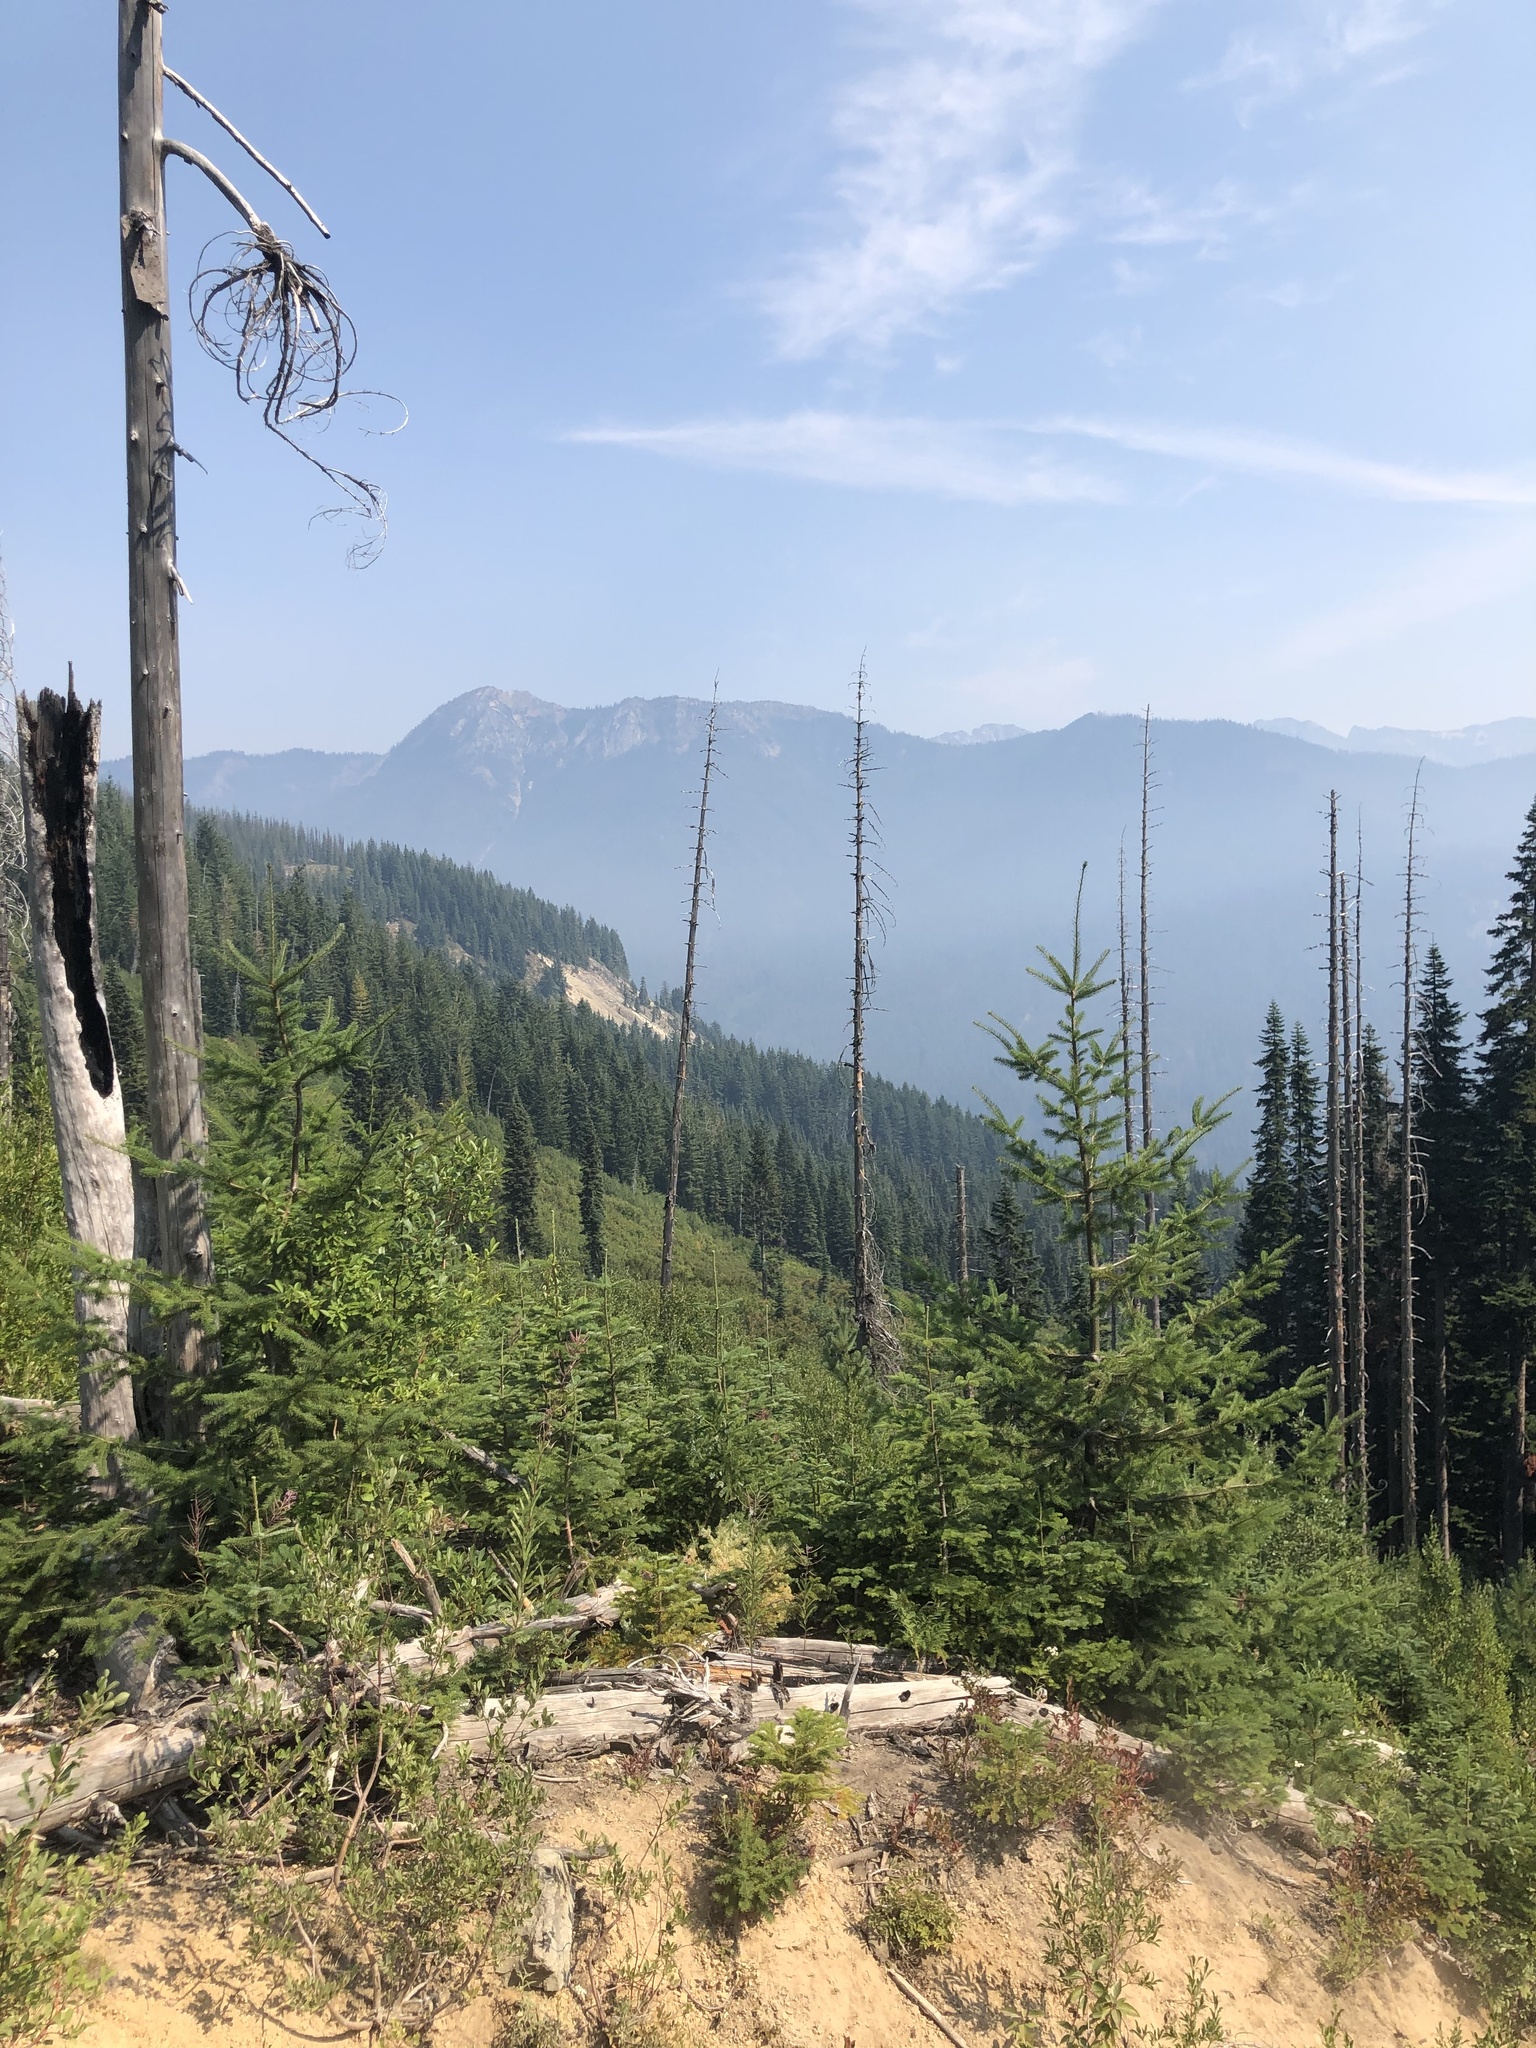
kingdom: Plantae
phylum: Tracheophyta
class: Pinopsida
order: Pinales
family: Pinaceae
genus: Pseudotsuga
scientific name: Pseudotsuga menziesii
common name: Douglas fir
